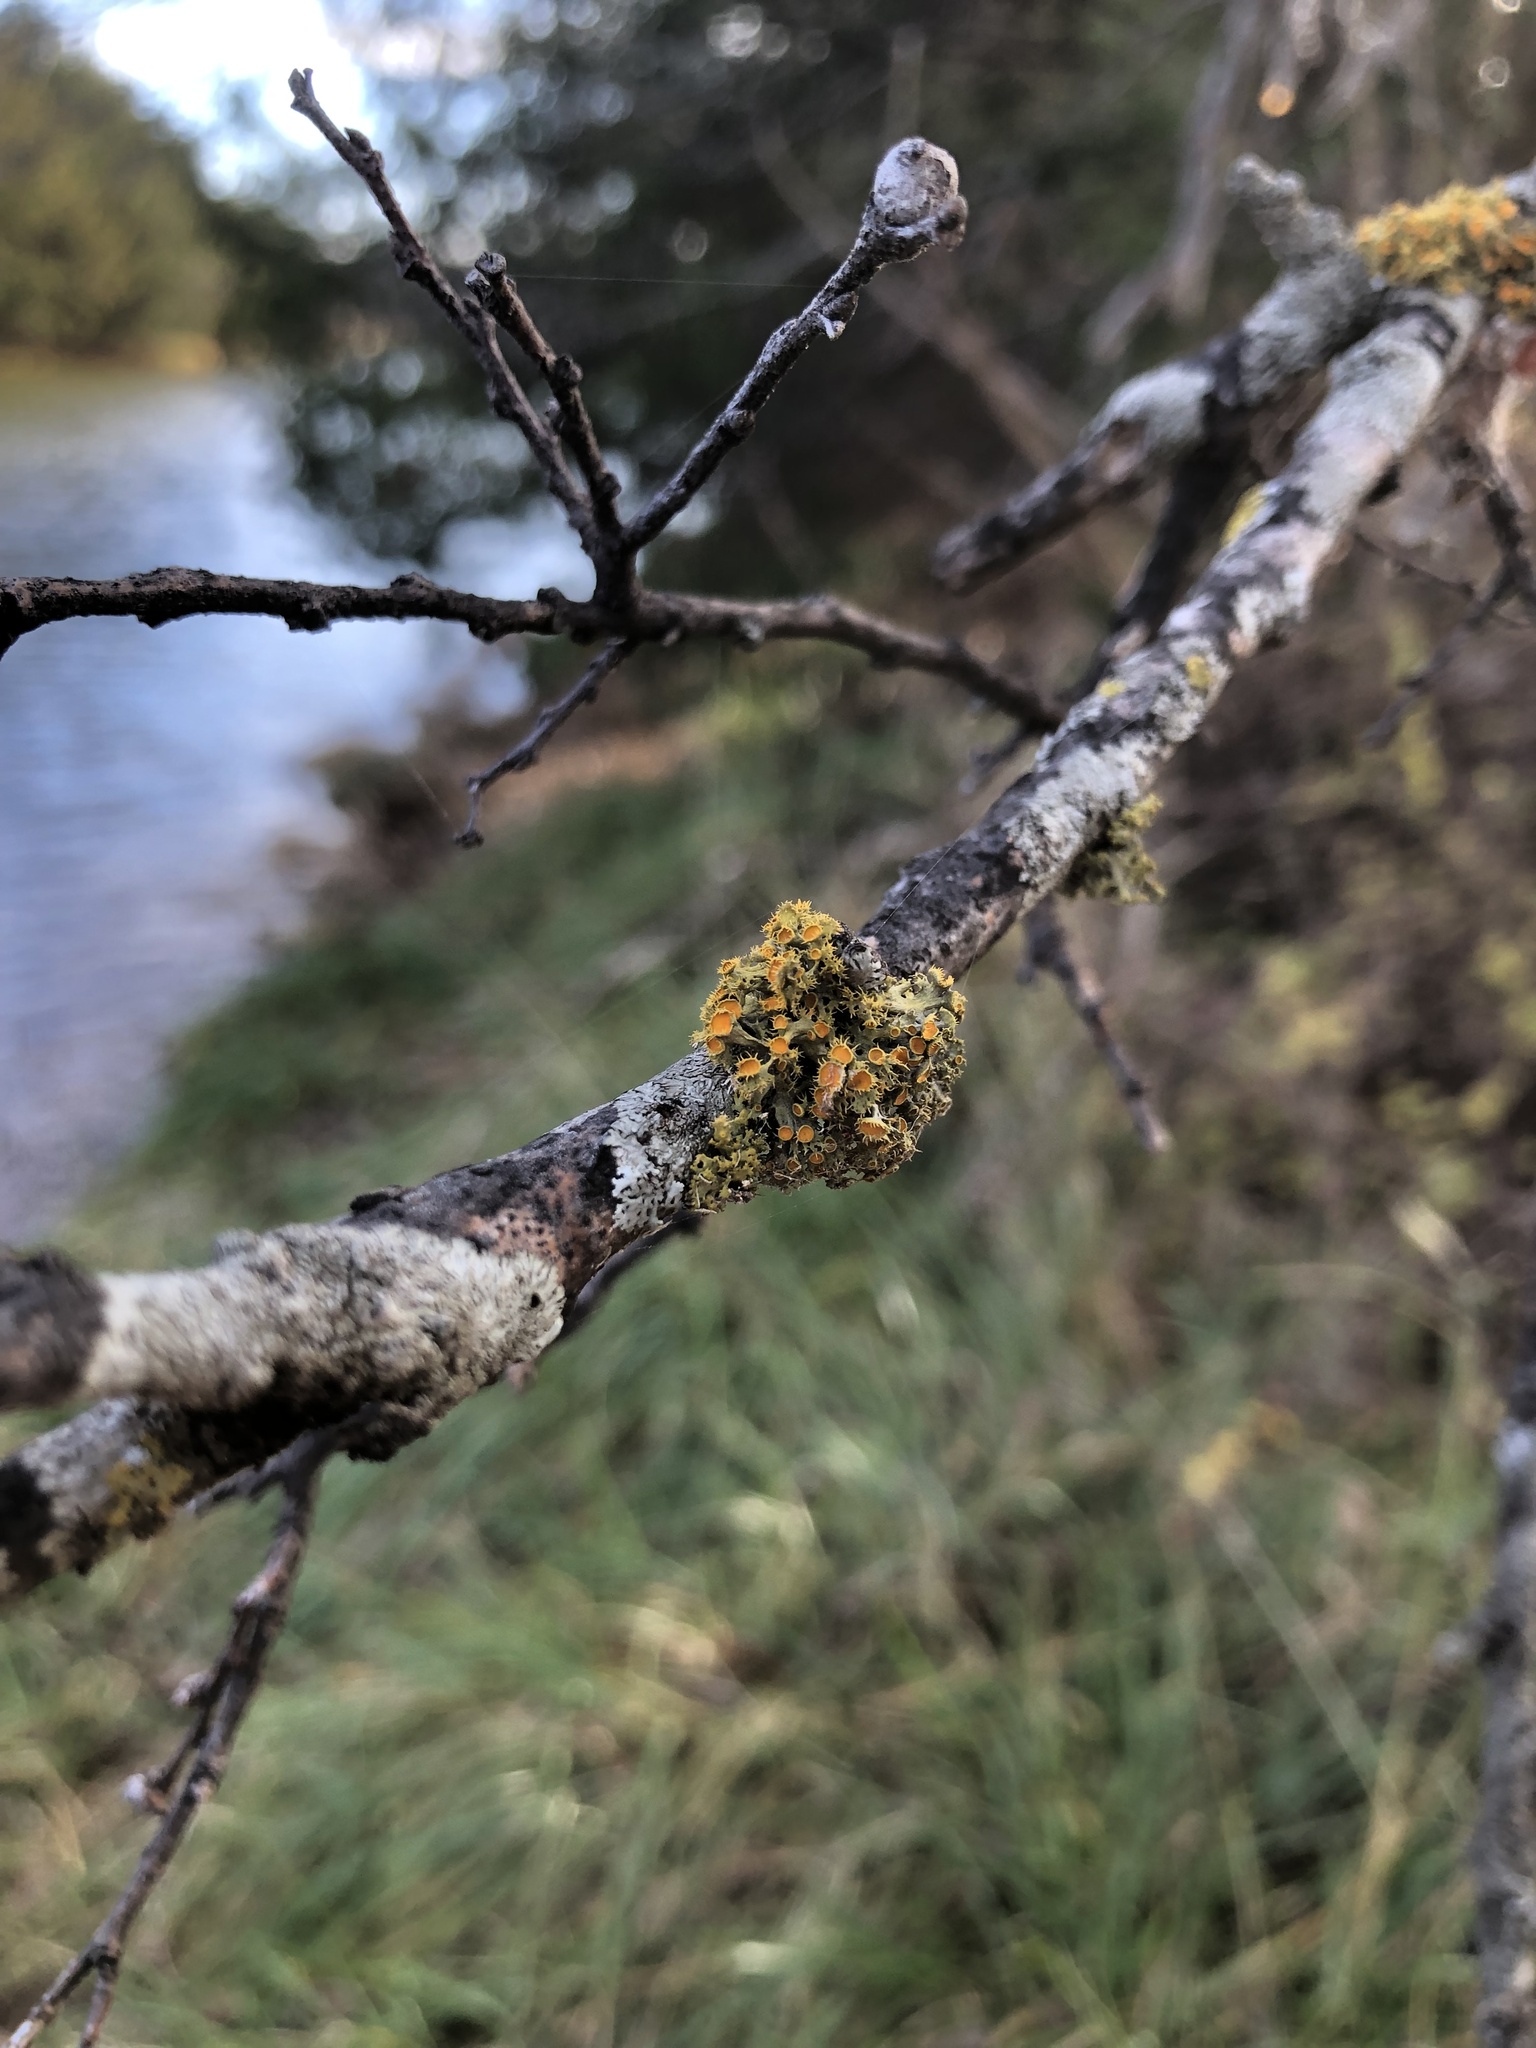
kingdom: Fungi
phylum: Ascomycota
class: Lecanoromycetes
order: Teloschistales
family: Teloschistaceae
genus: Niorma
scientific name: Niorma chrysophthalma
